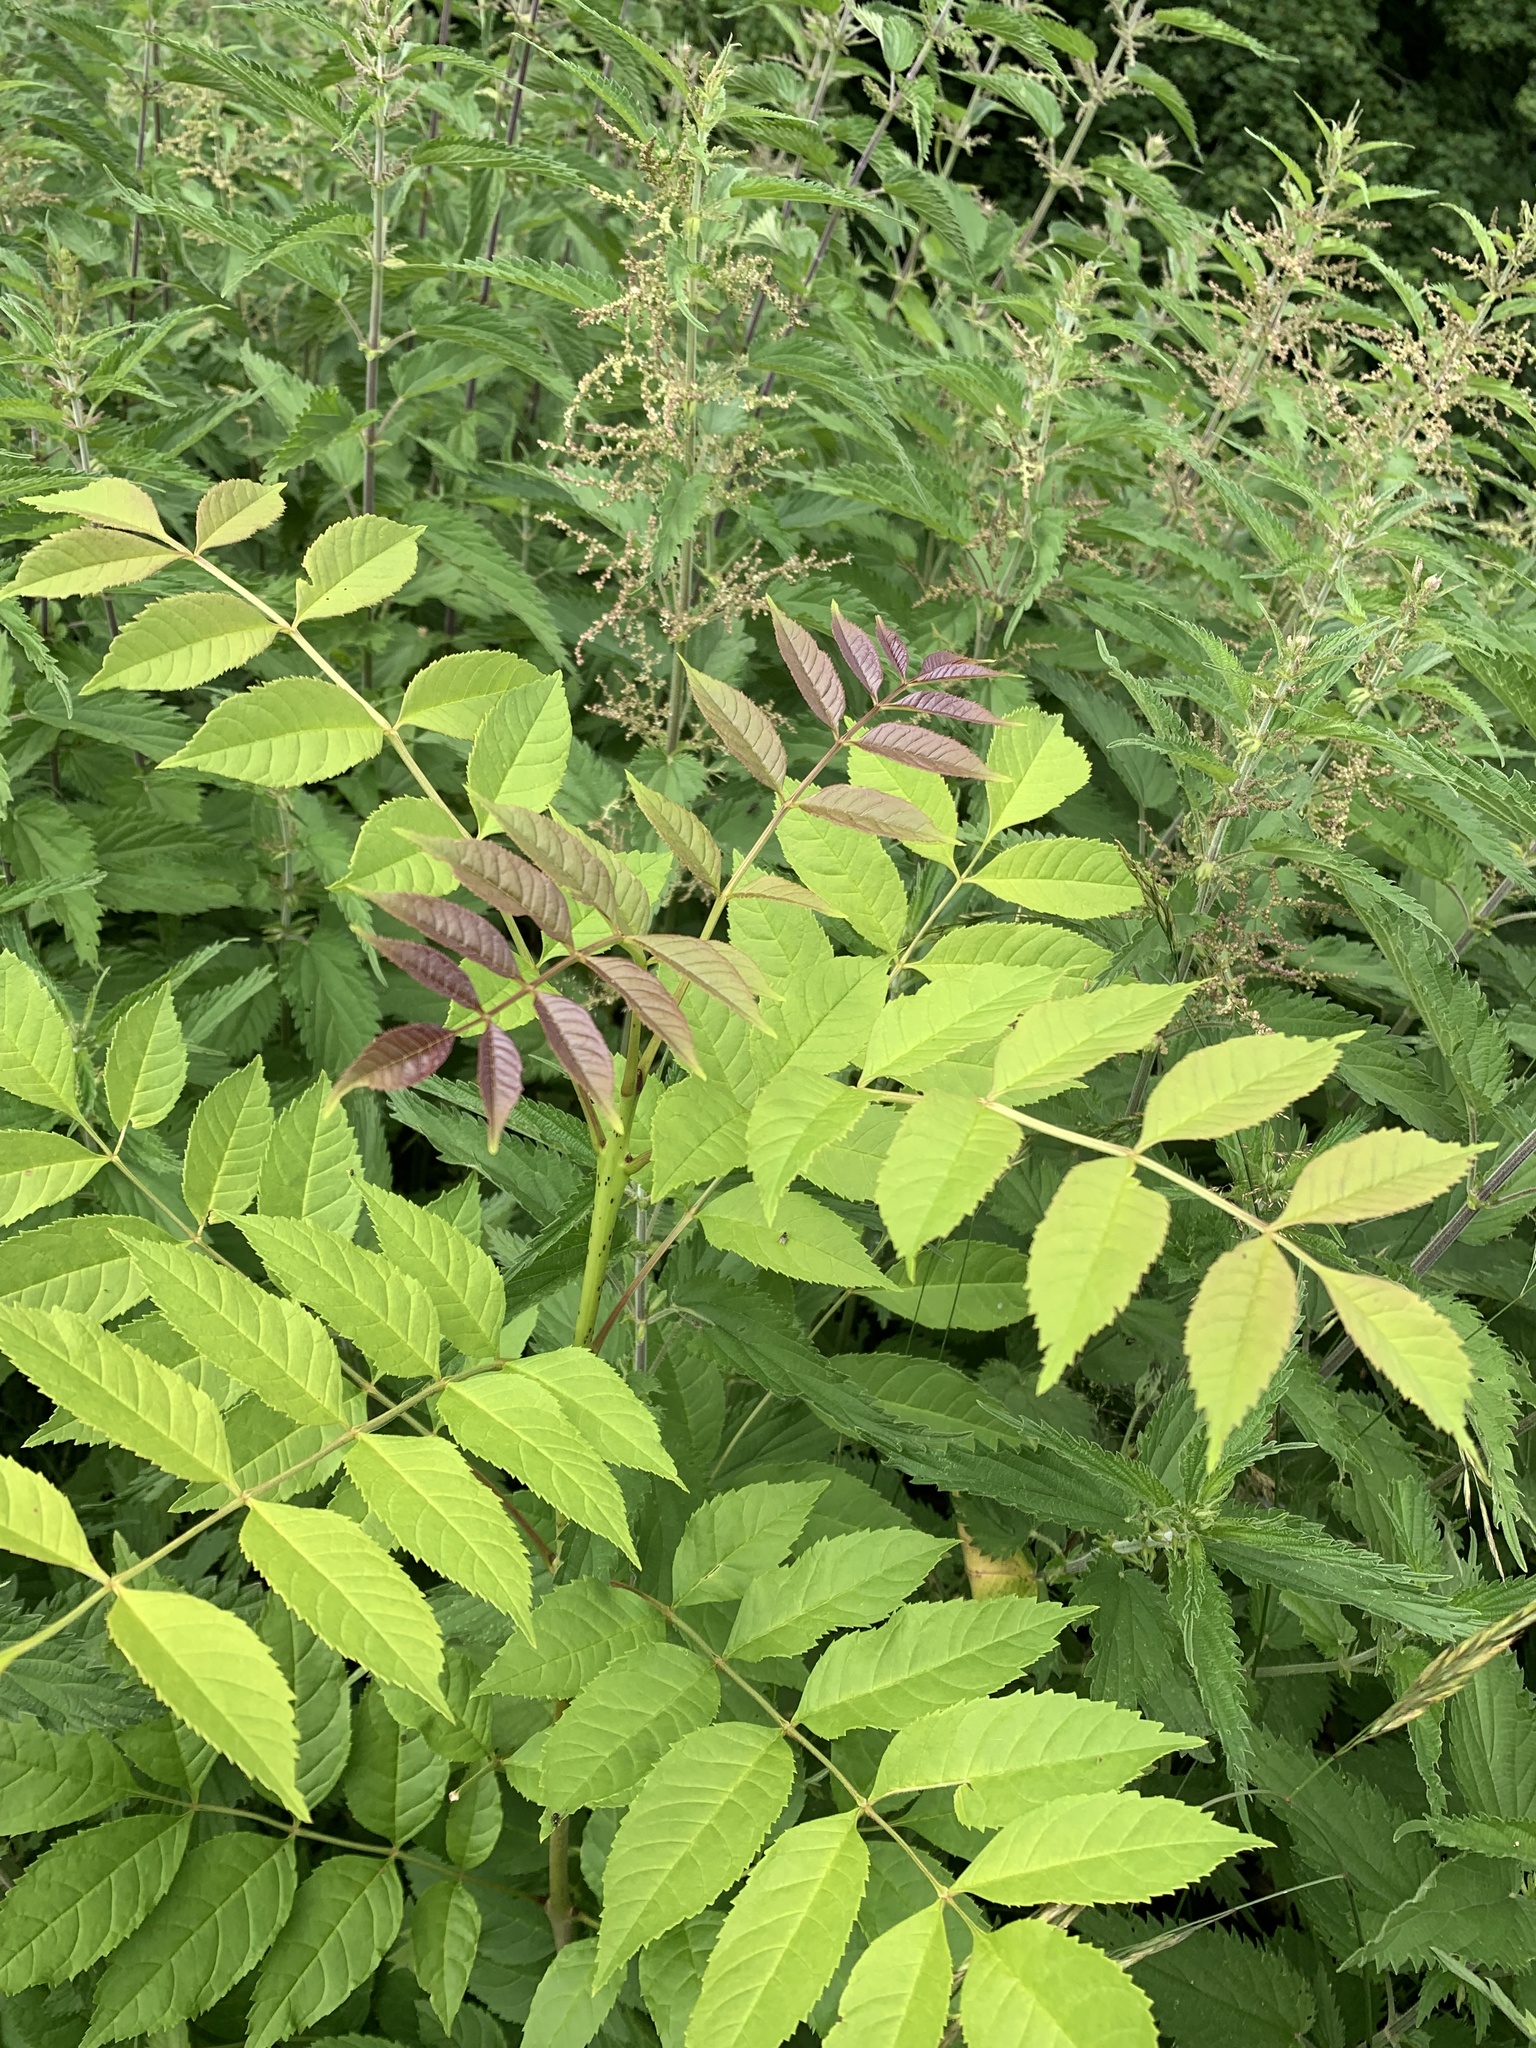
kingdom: Plantae
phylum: Tracheophyta
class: Magnoliopsida
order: Lamiales
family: Oleaceae
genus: Fraxinus
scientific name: Fraxinus excelsior
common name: European ash
